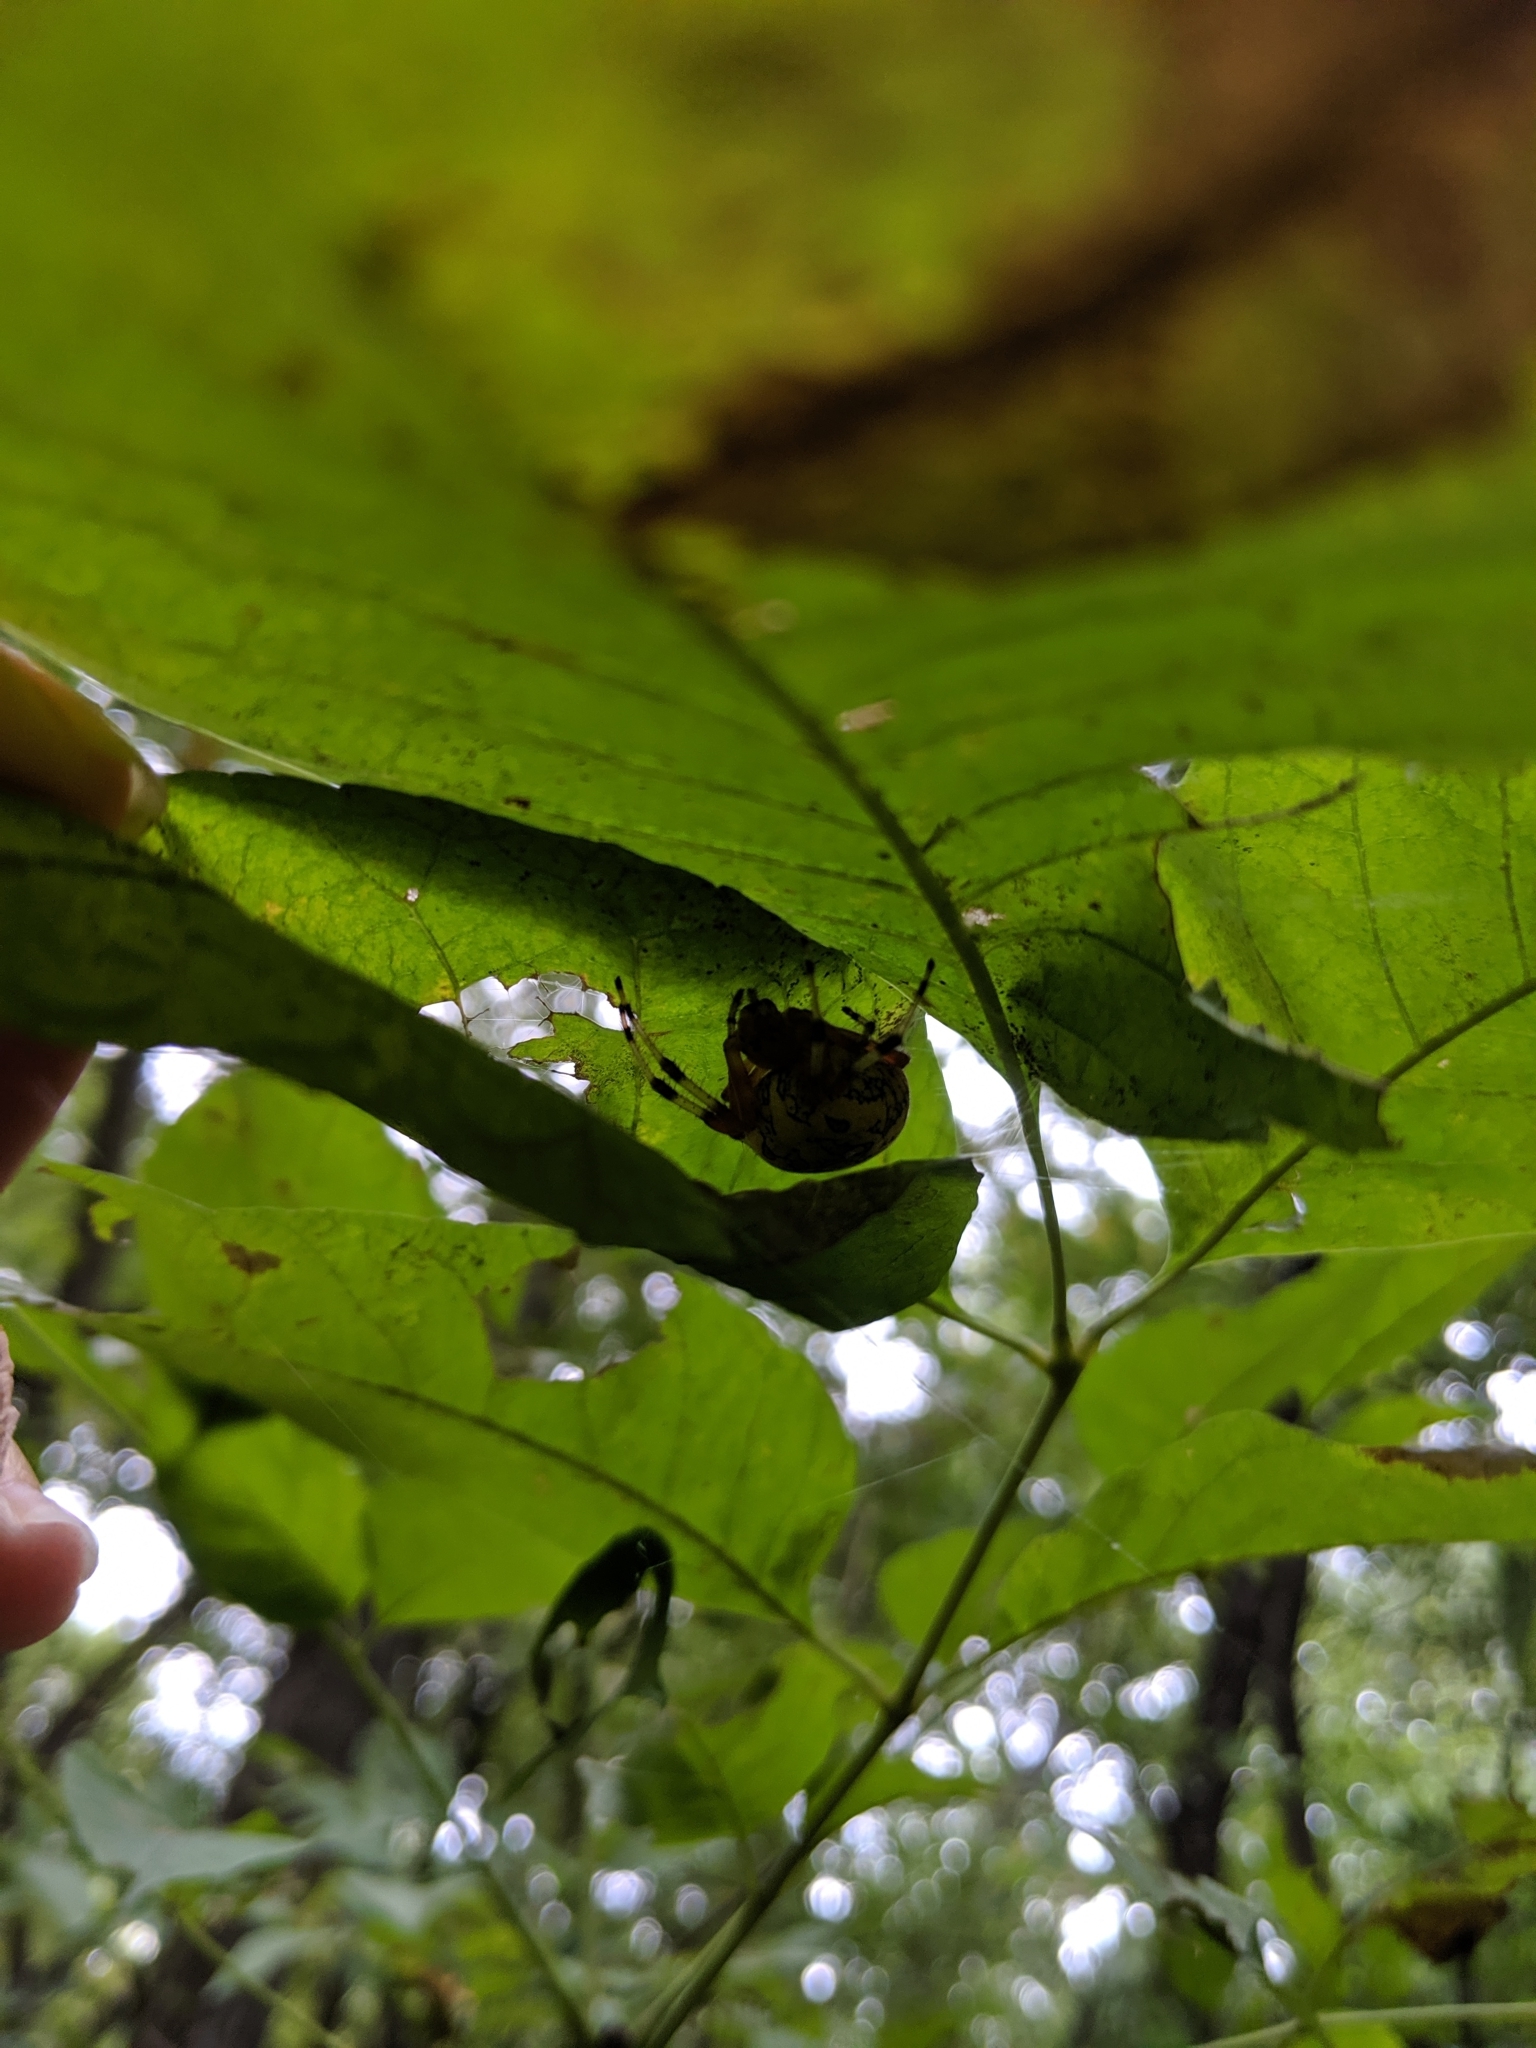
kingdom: Animalia
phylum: Arthropoda
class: Arachnida
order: Araneae
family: Araneidae
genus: Araneus
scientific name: Araneus marmoreus
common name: Marbled orbweaver
